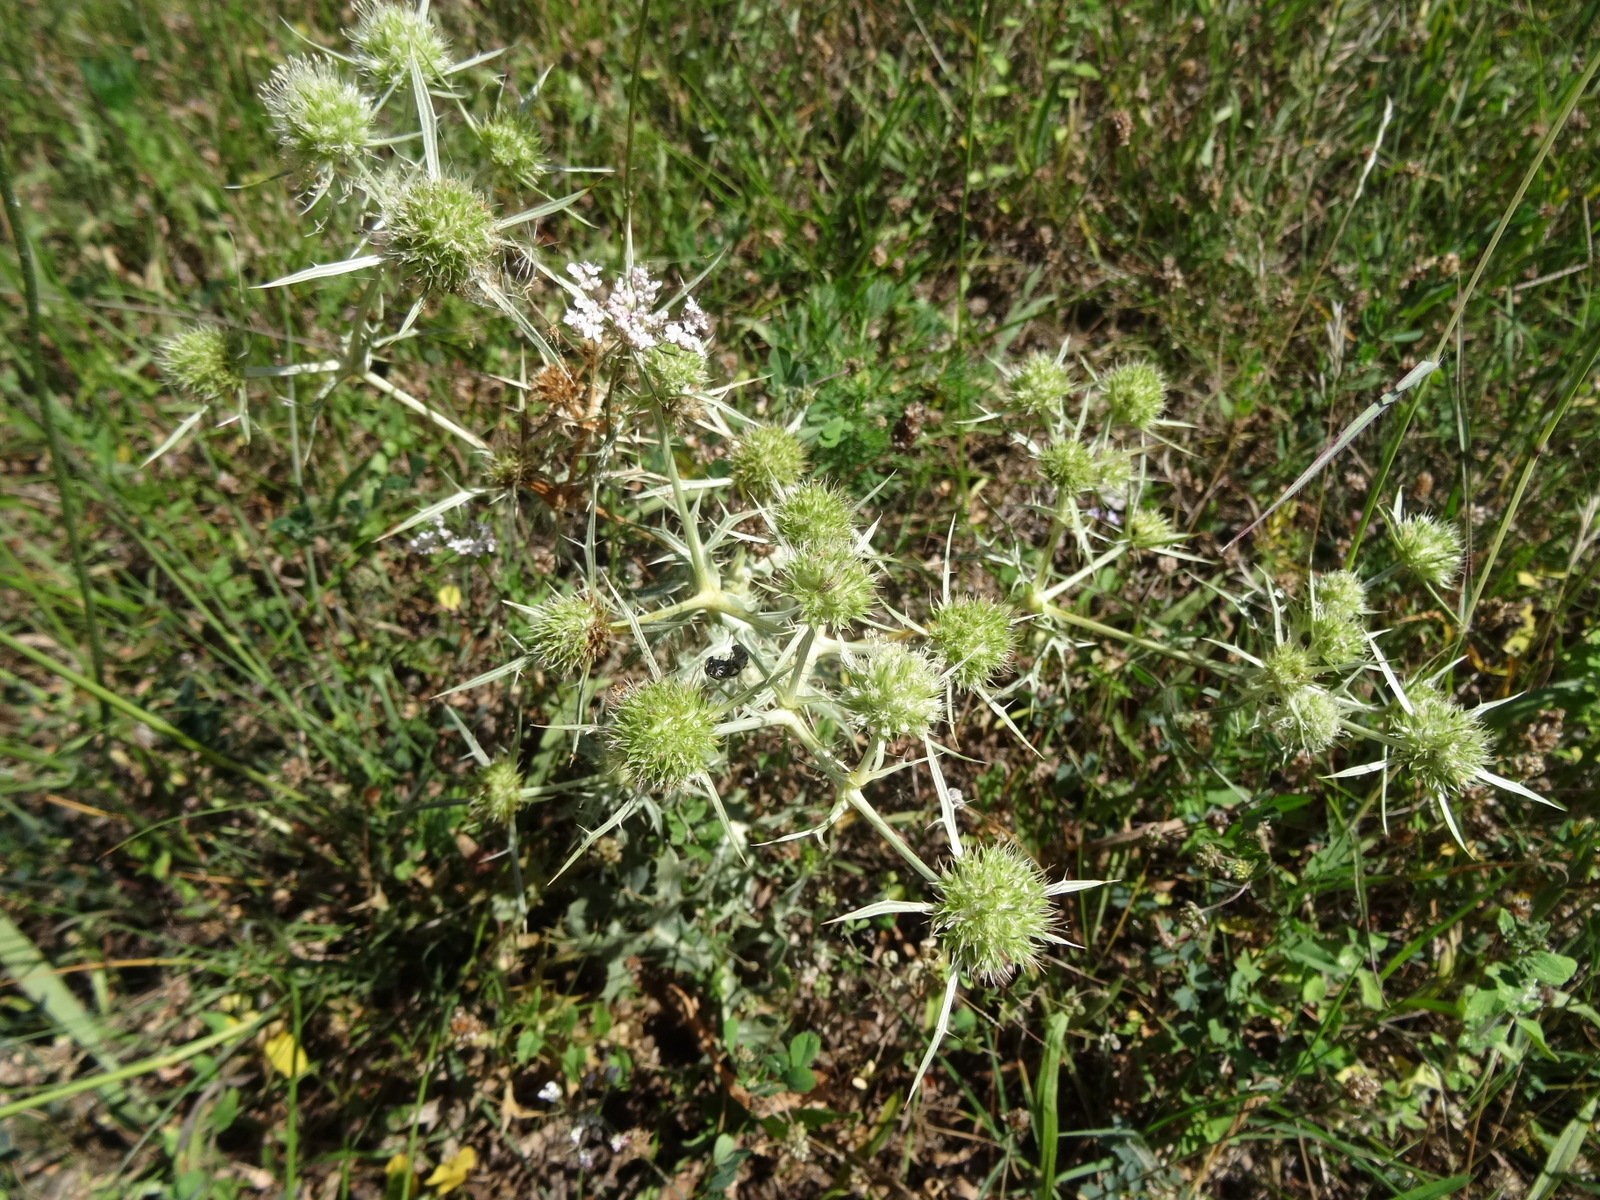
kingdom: Plantae
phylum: Tracheophyta
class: Magnoliopsida
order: Apiales
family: Apiaceae
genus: Eryngium
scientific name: Eryngium campestre
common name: Field eryngo
